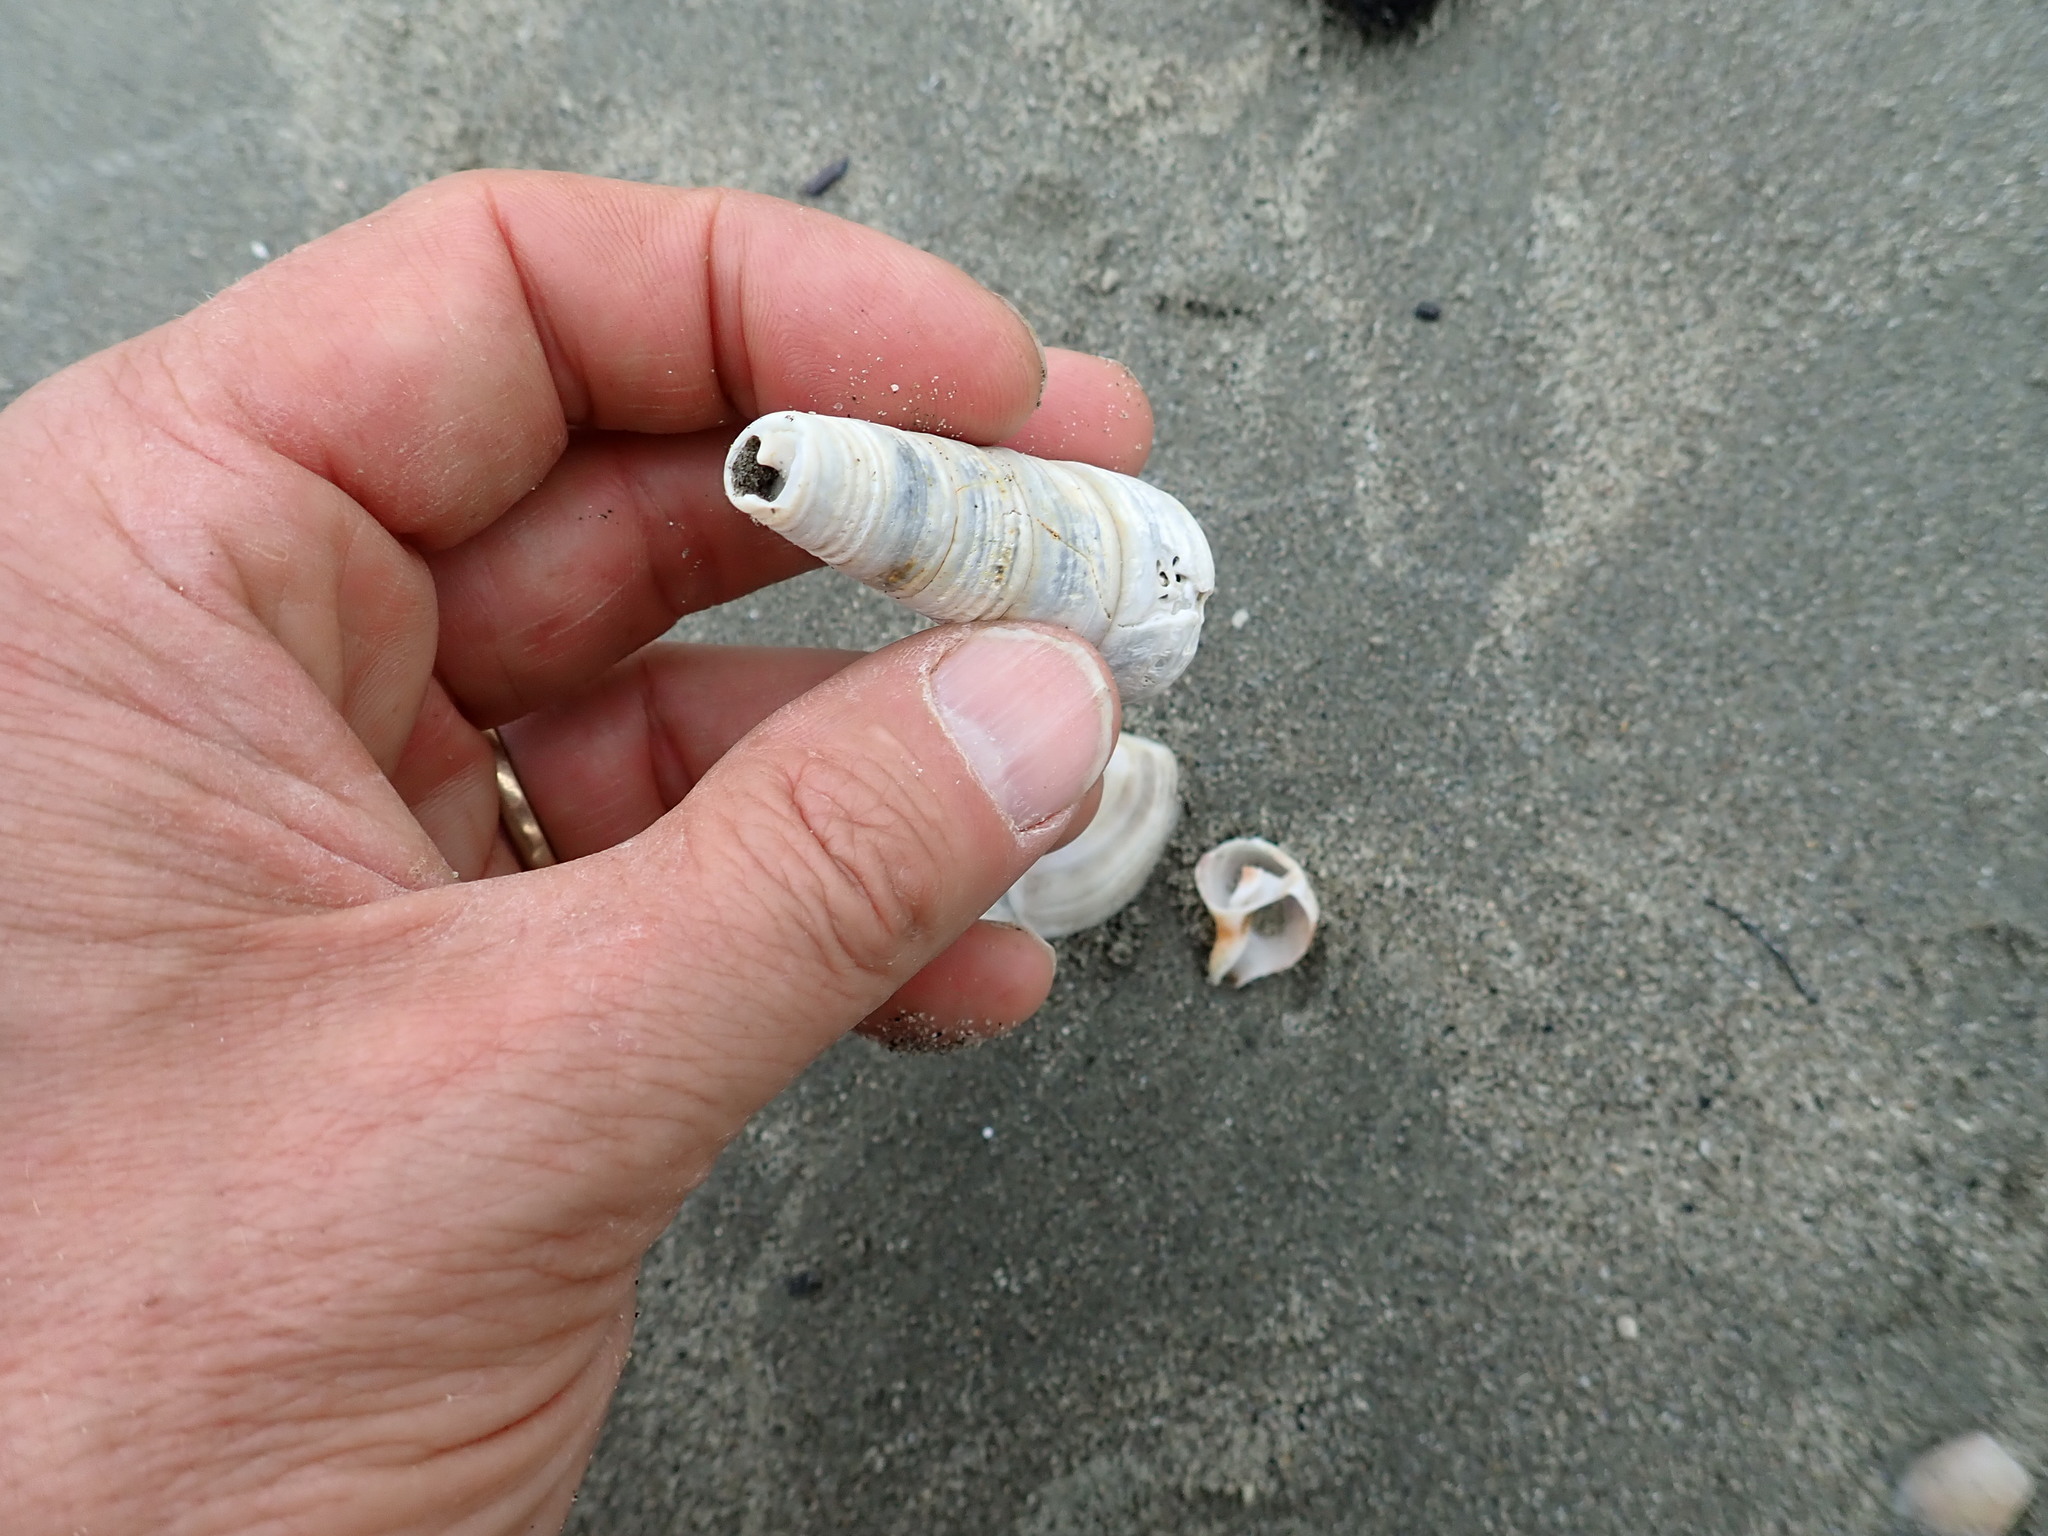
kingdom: Animalia
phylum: Mollusca
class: Gastropoda
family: Turritellidae
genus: Maoricolpus
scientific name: Maoricolpus roseus
